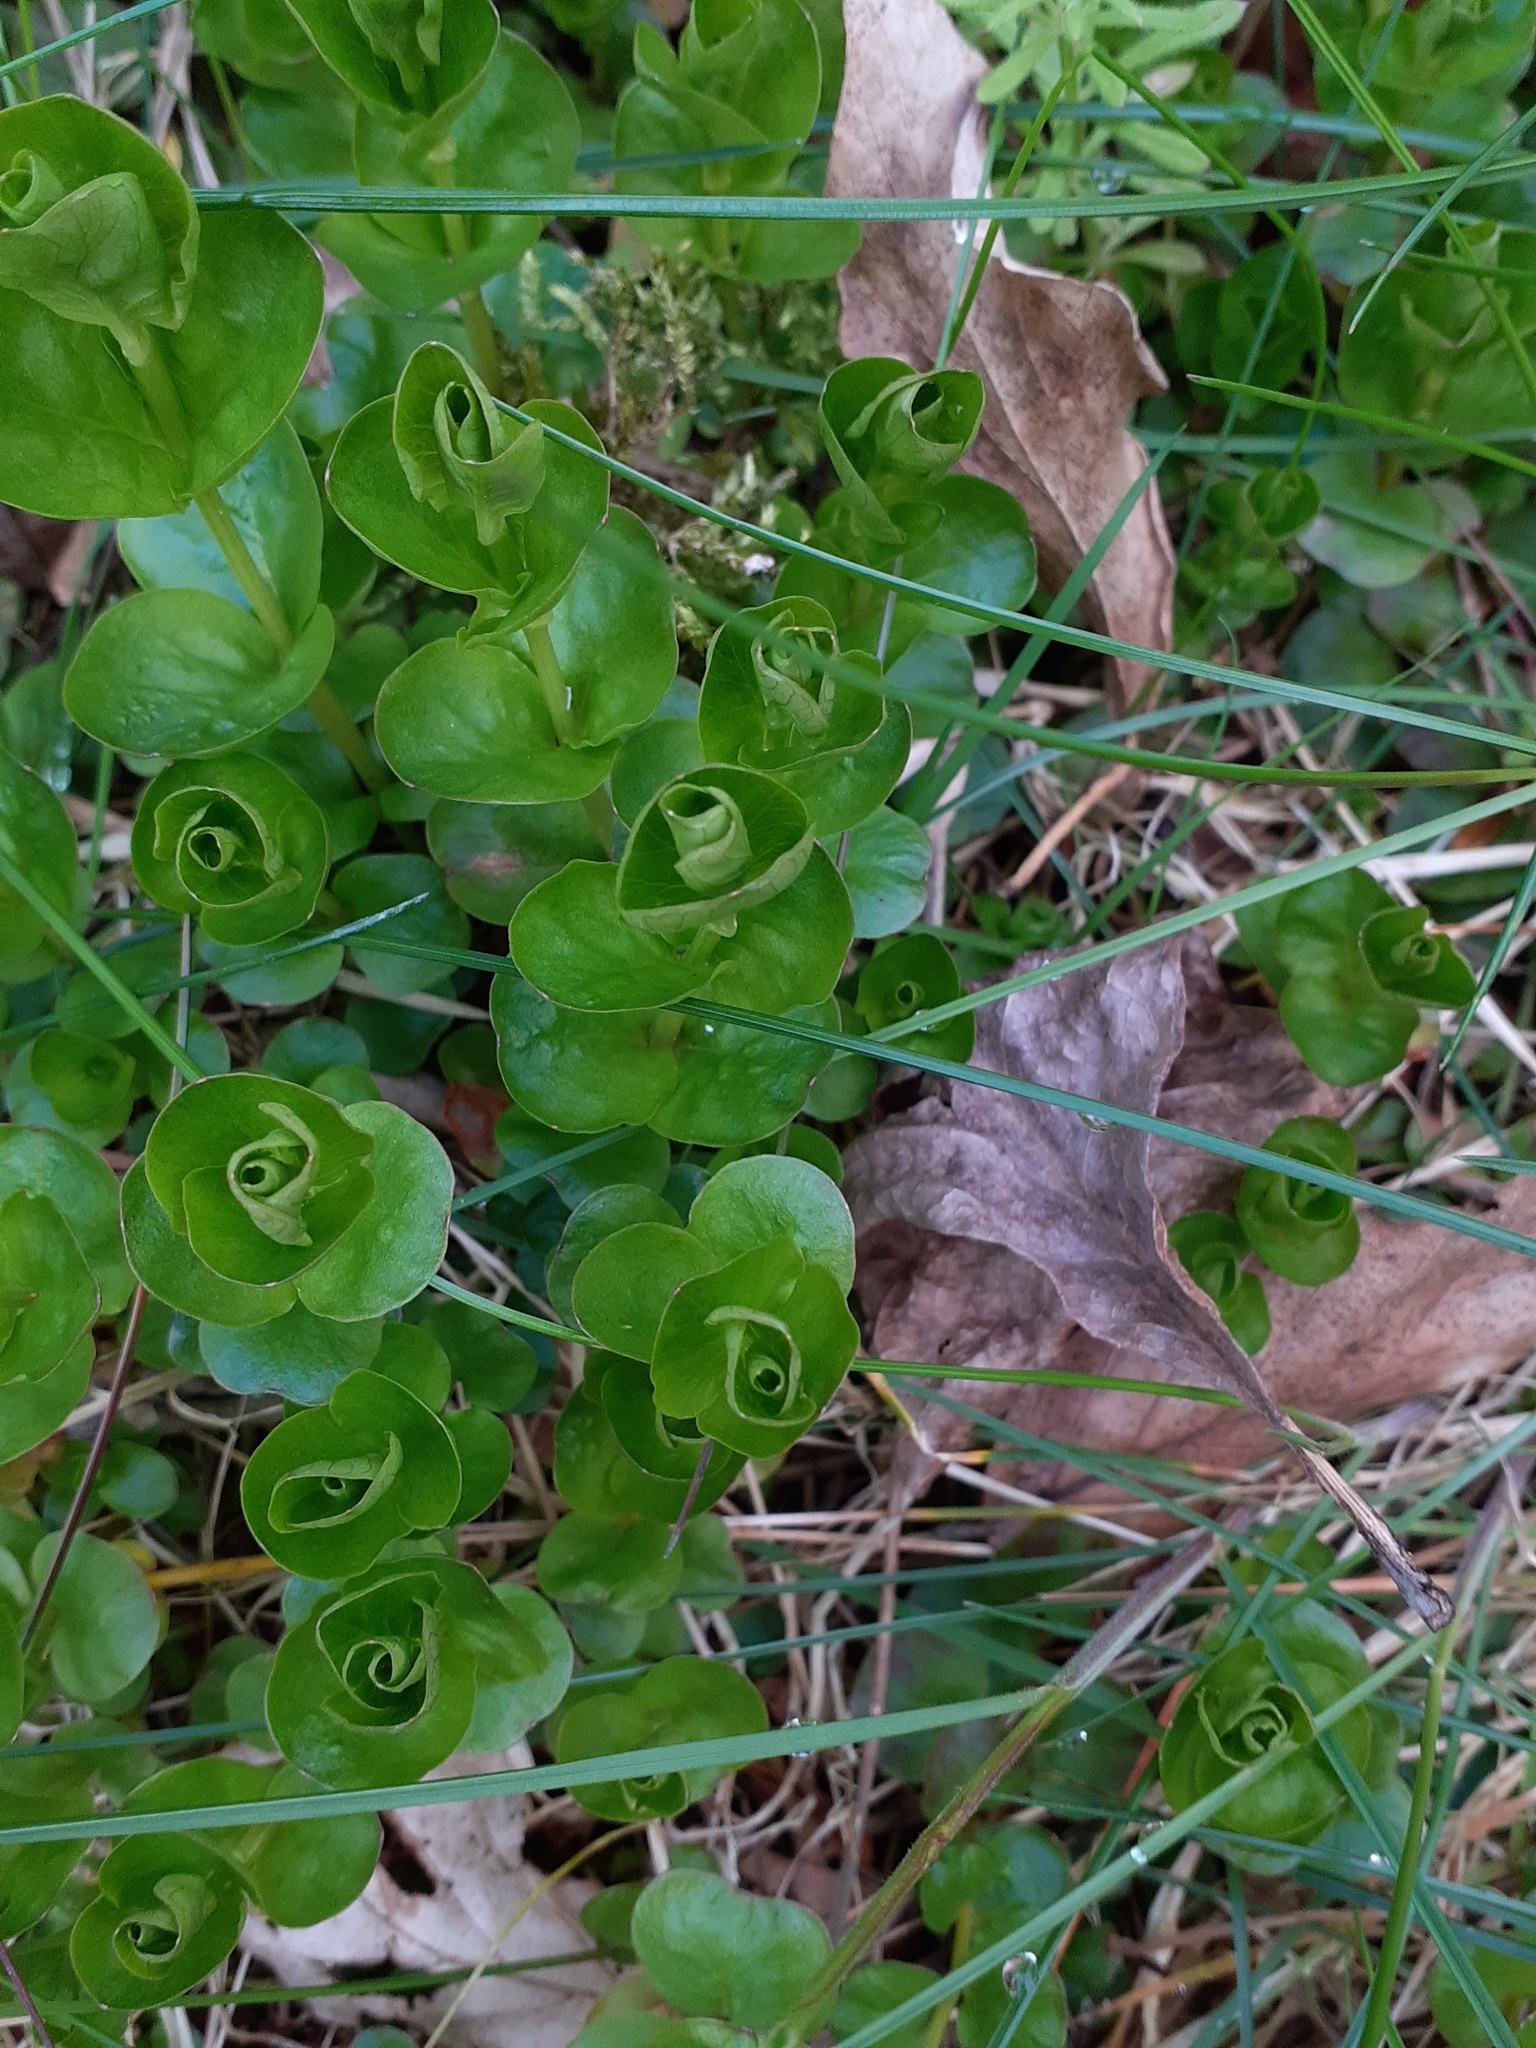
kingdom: Plantae
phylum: Tracheophyta
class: Magnoliopsida
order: Ericales
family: Primulaceae
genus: Lysimachia
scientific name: Lysimachia nummularia
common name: Moneywort
